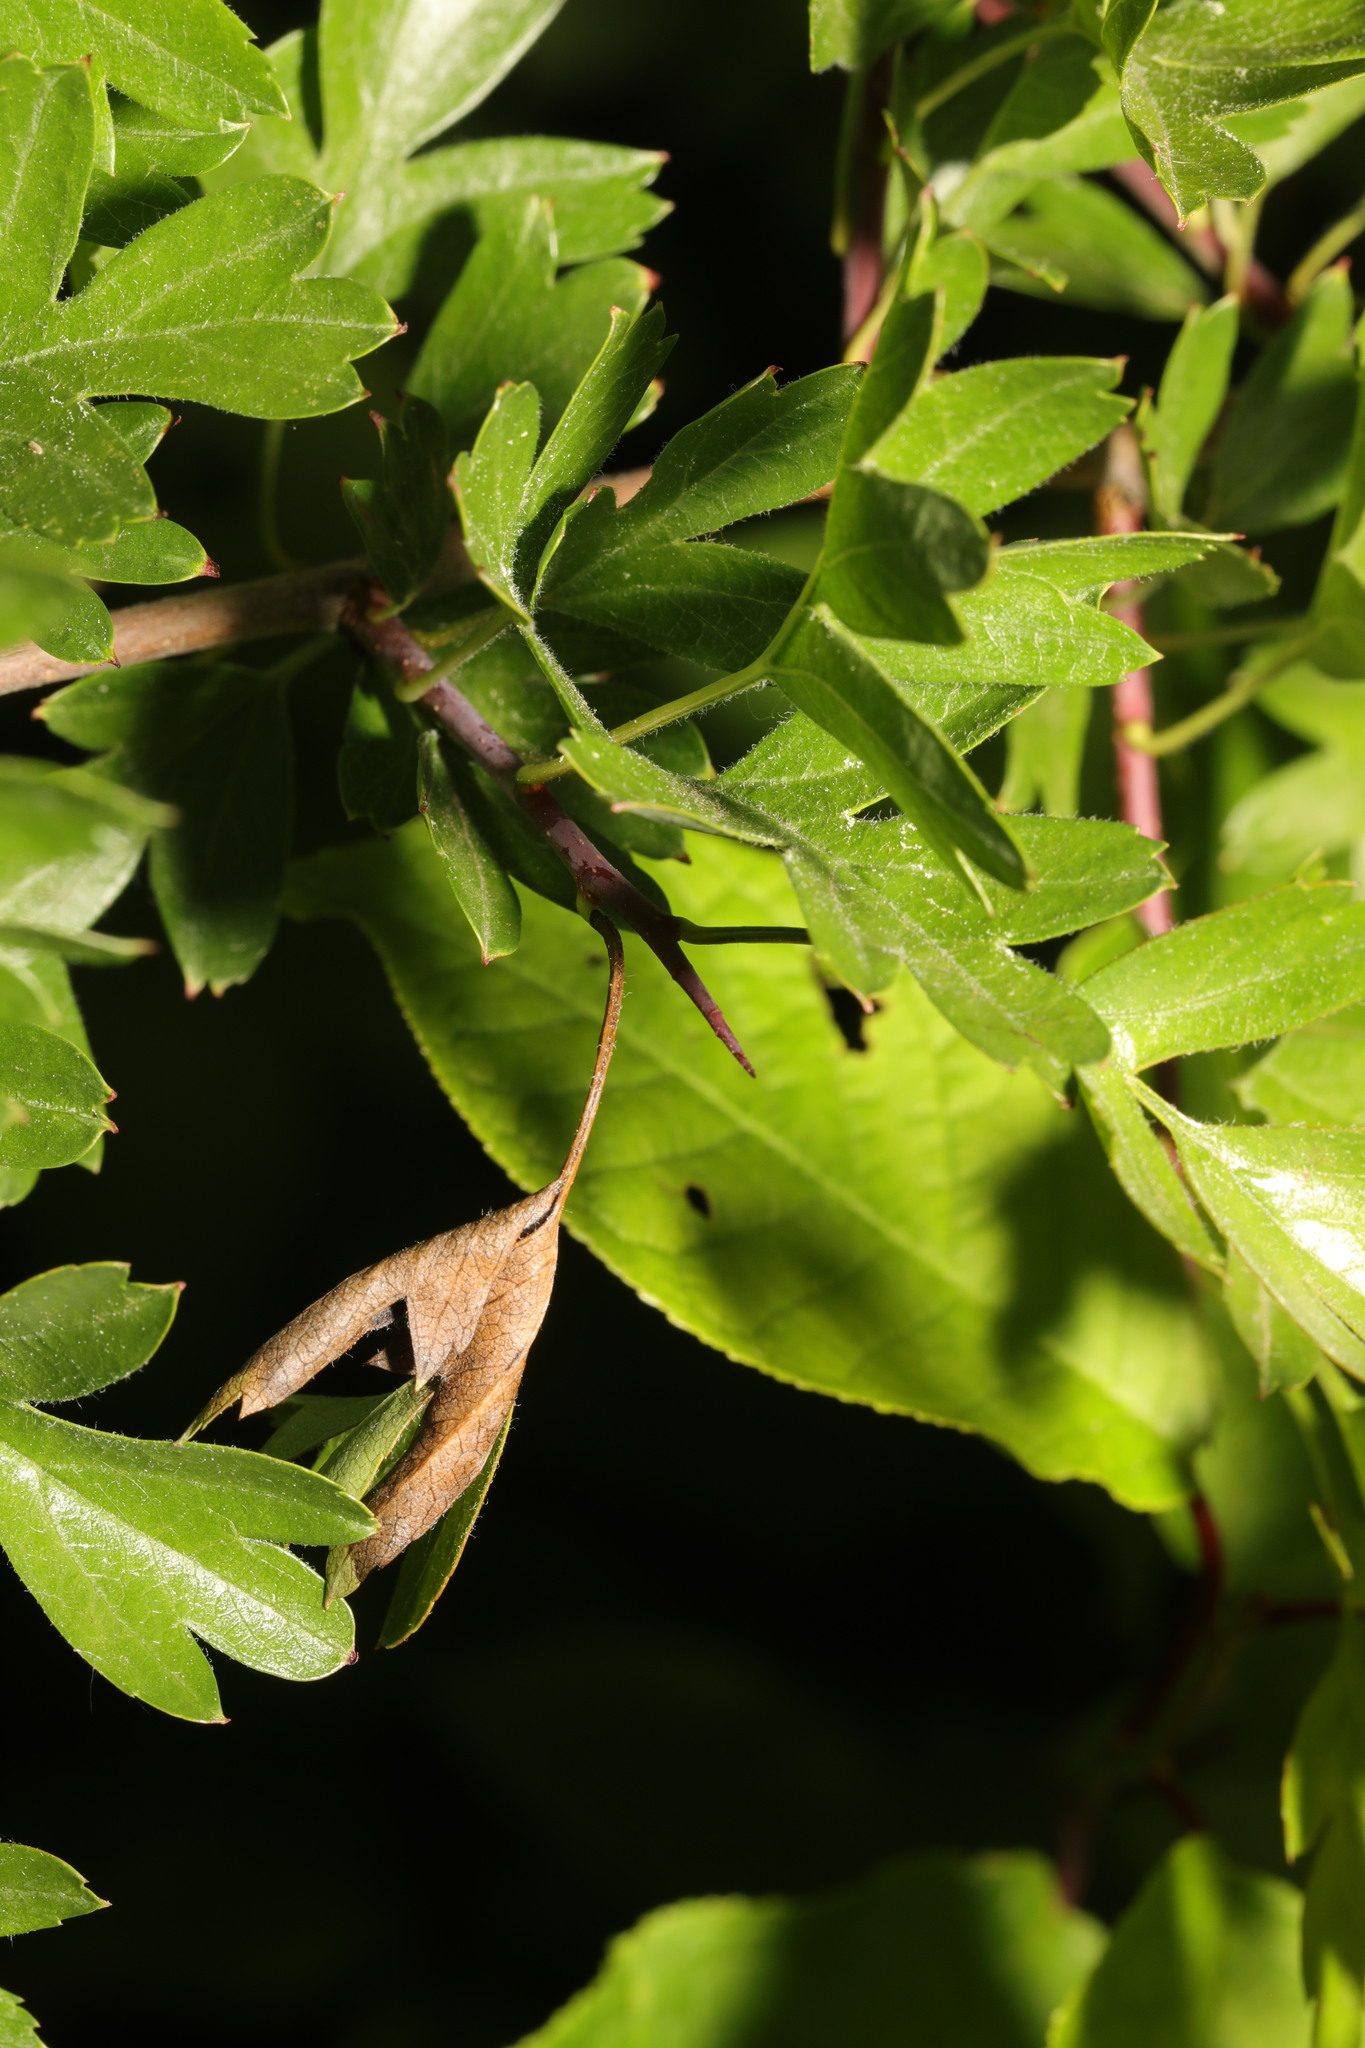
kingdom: Fungi
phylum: Ascomycota
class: Leotiomycetes
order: Helotiales
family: Sclerotiniaceae
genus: Monilinia
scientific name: Monilinia johnsonii
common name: Haw goblet
